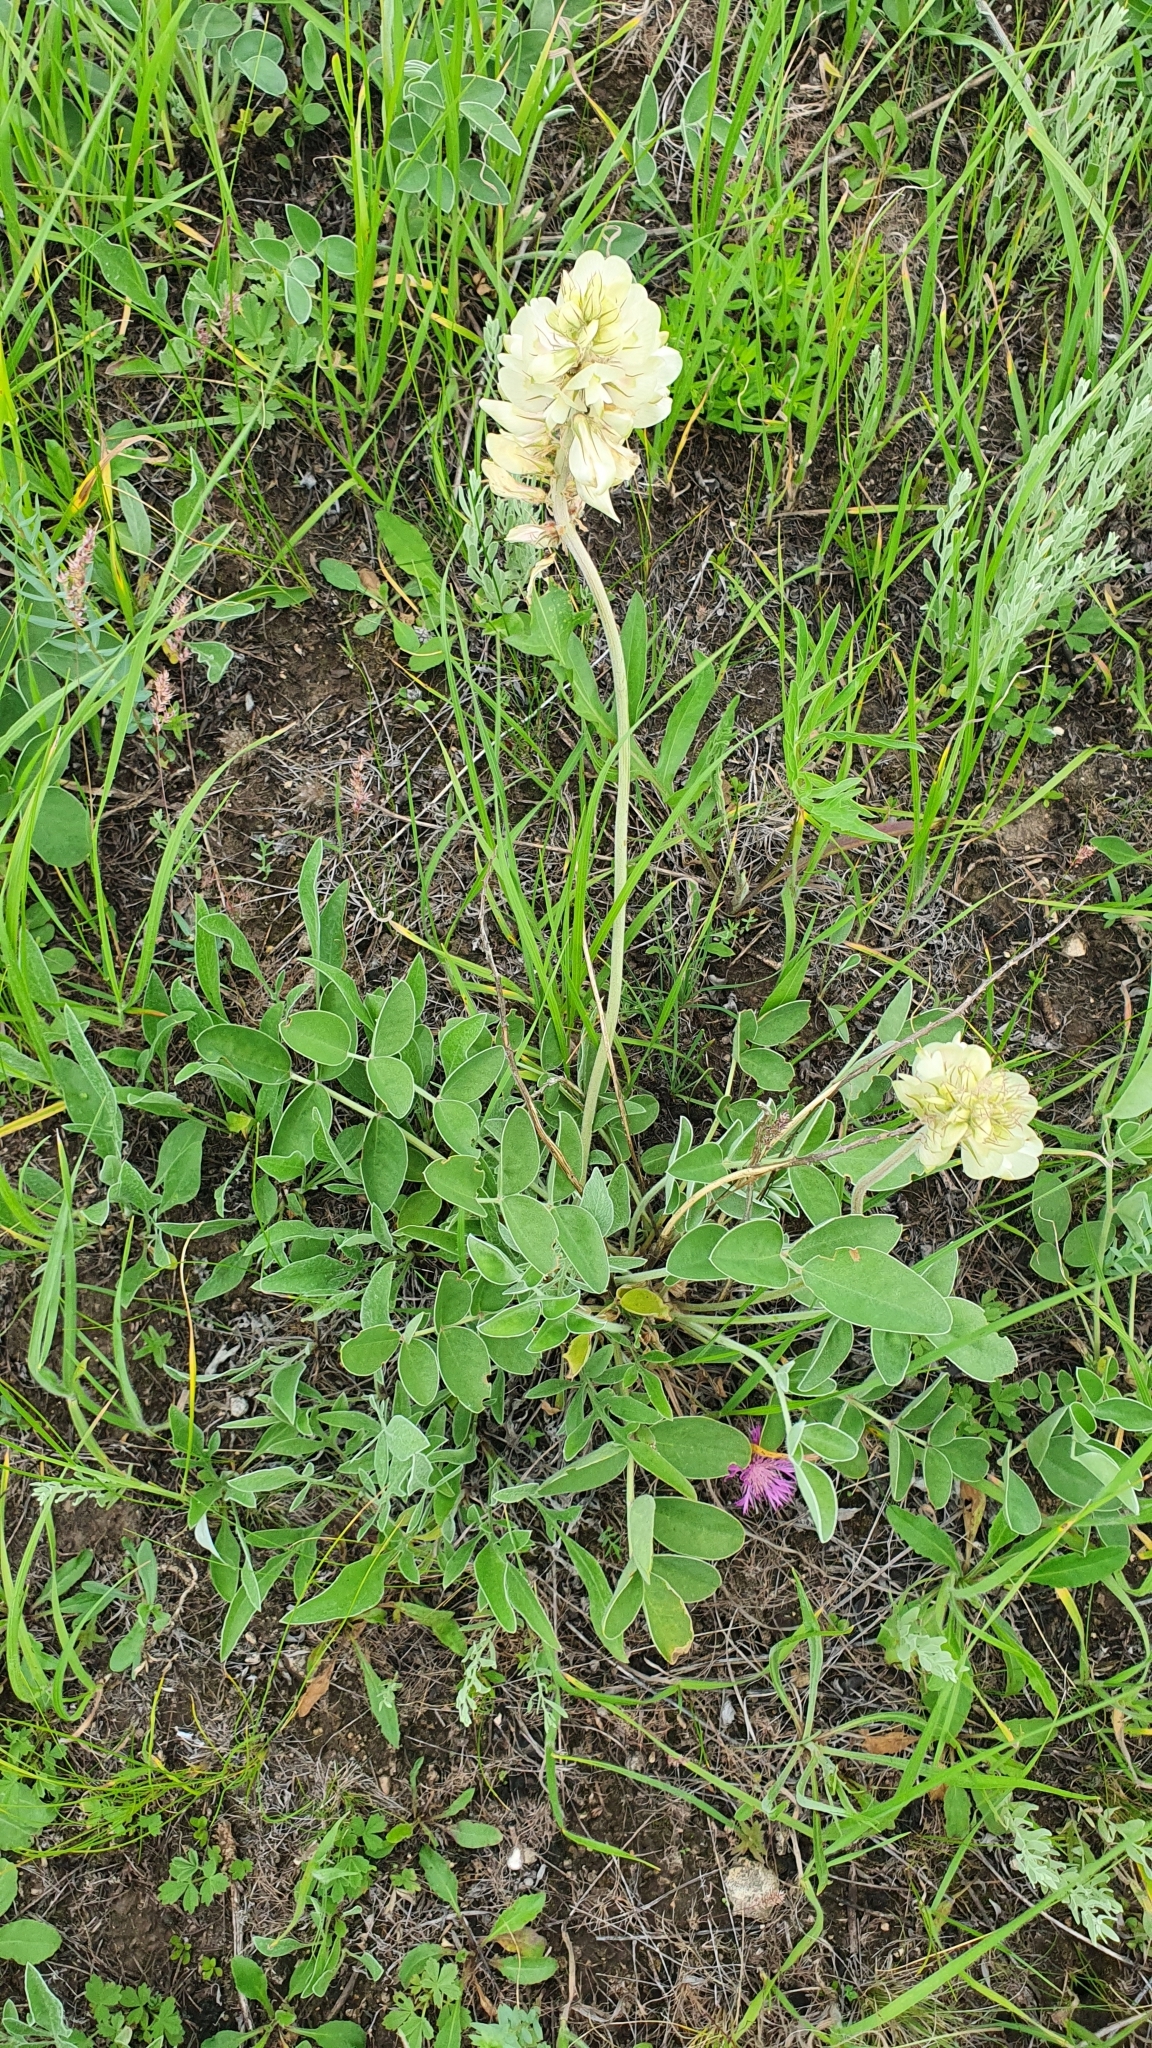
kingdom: Plantae
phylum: Tracheophyta
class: Magnoliopsida
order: Fabales
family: Fabaceae
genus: Hedysarum
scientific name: Hedysarum grandiflorum
